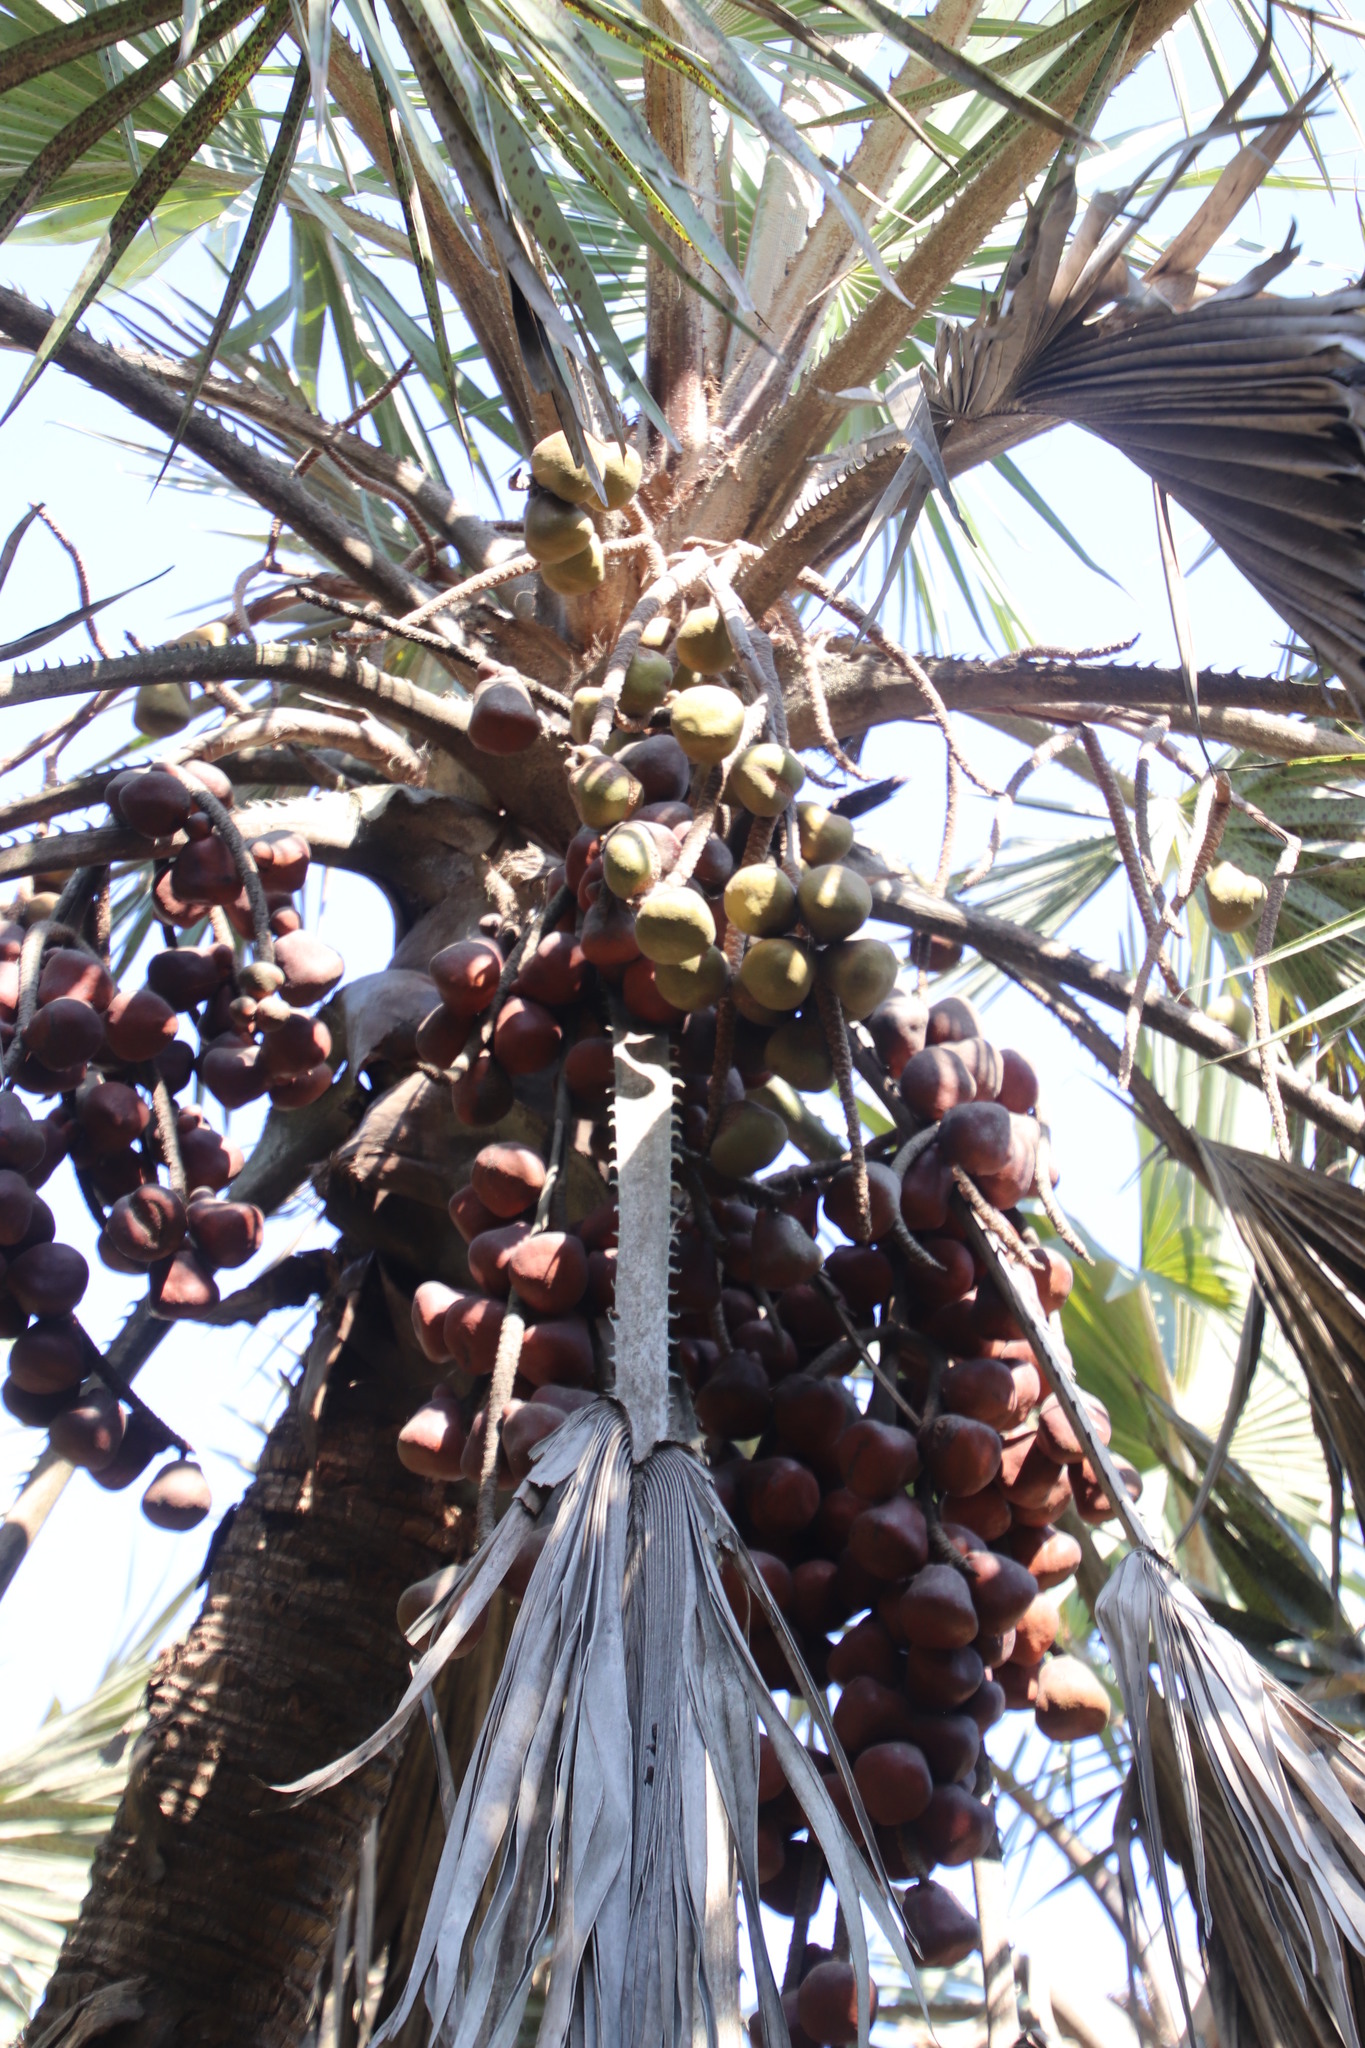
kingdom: Plantae
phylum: Tracheophyta
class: Liliopsida
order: Arecales
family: Arecaceae
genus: Hyphaene
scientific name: Hyphaene coriacea
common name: Ilala palm
